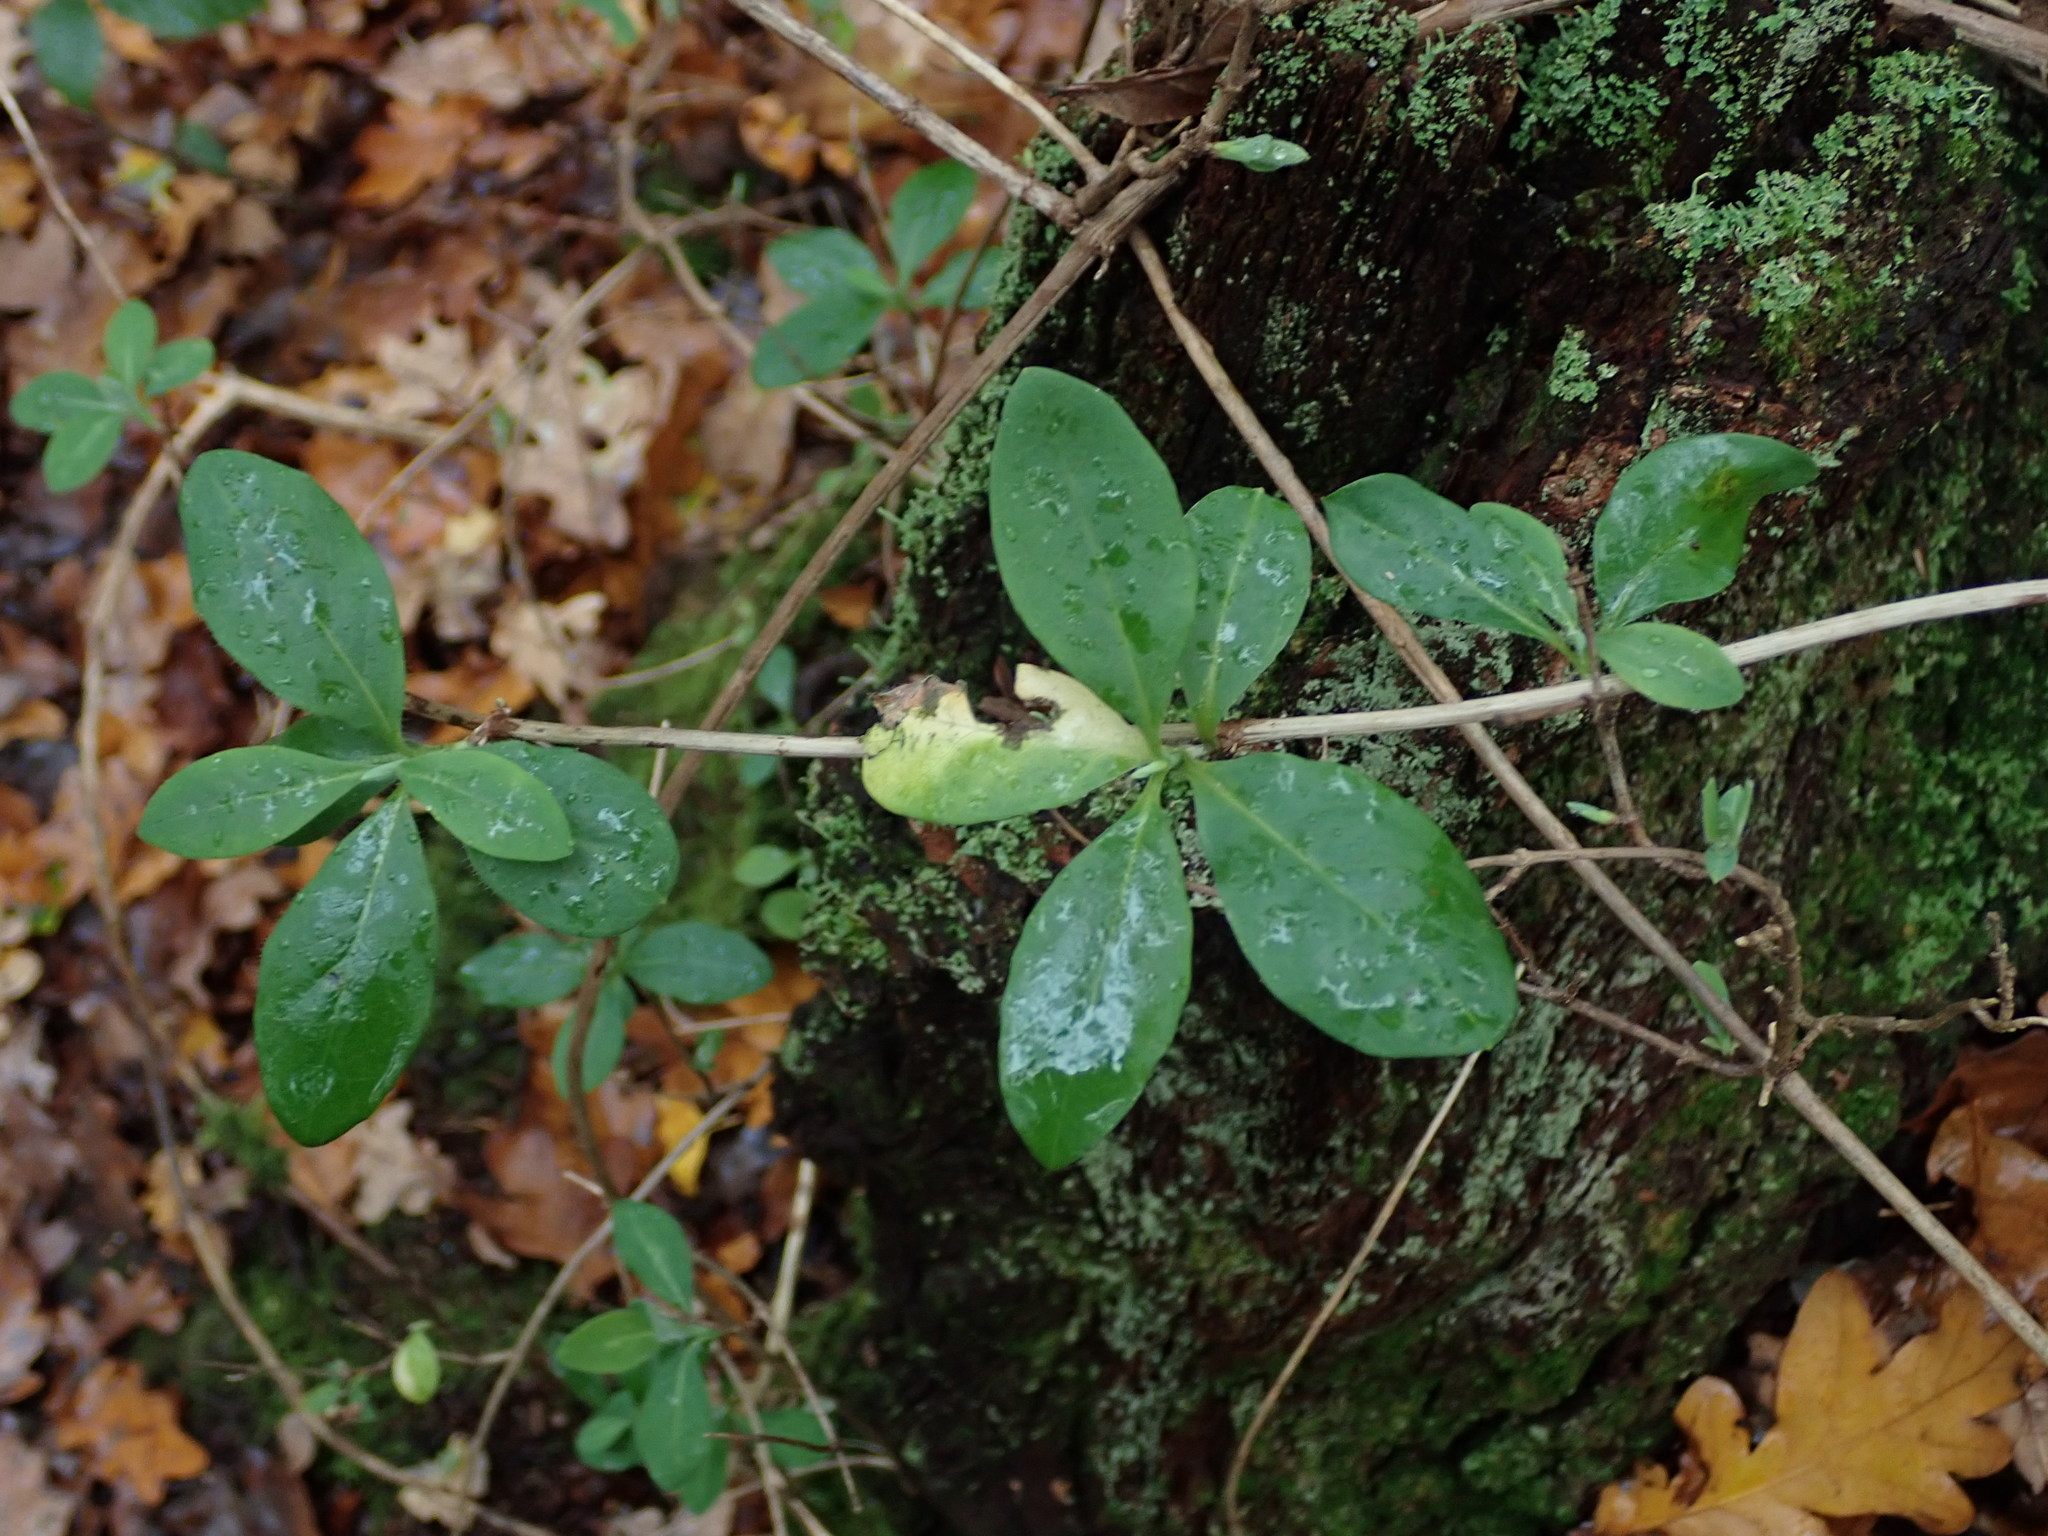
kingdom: Plantae
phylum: Tracheophyta
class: Magnoliopsida
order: Dipsacales
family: Caprifoliaceae
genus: Lonicera
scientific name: Lonicera periclymenum
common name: European honeysuckle
